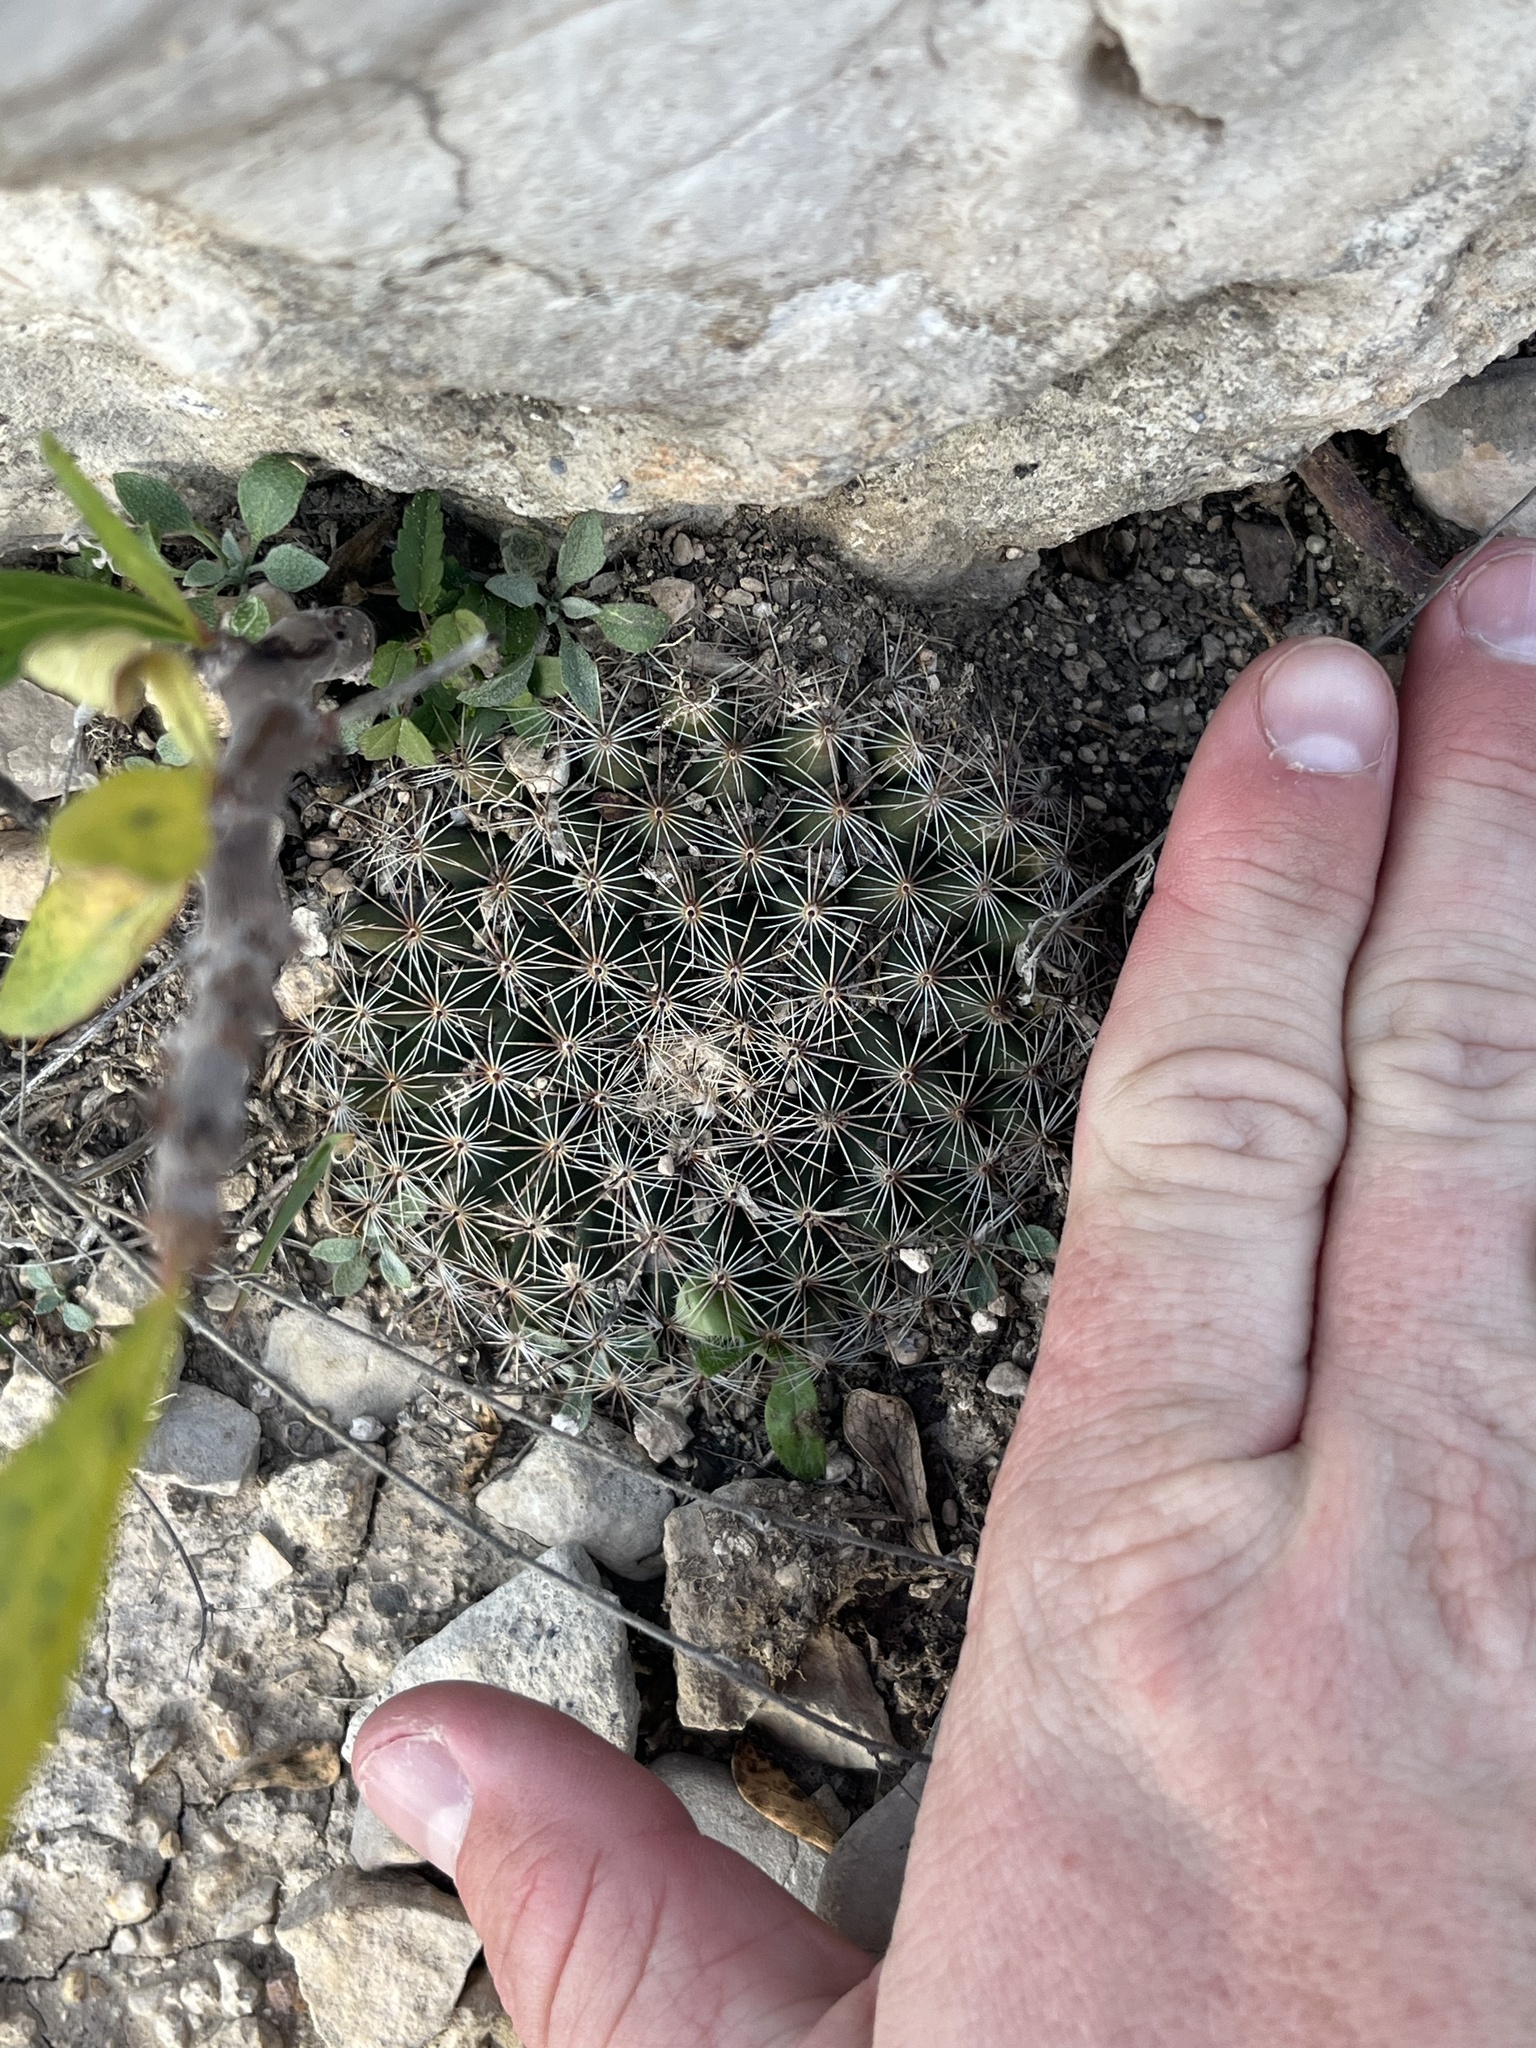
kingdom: Plantae
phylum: Tracheophyta
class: Magnoliopsida
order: Caryophyllales
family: Cactaceae
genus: Mammillaria
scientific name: Mammillaria heyderi
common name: Little nipple cactus
